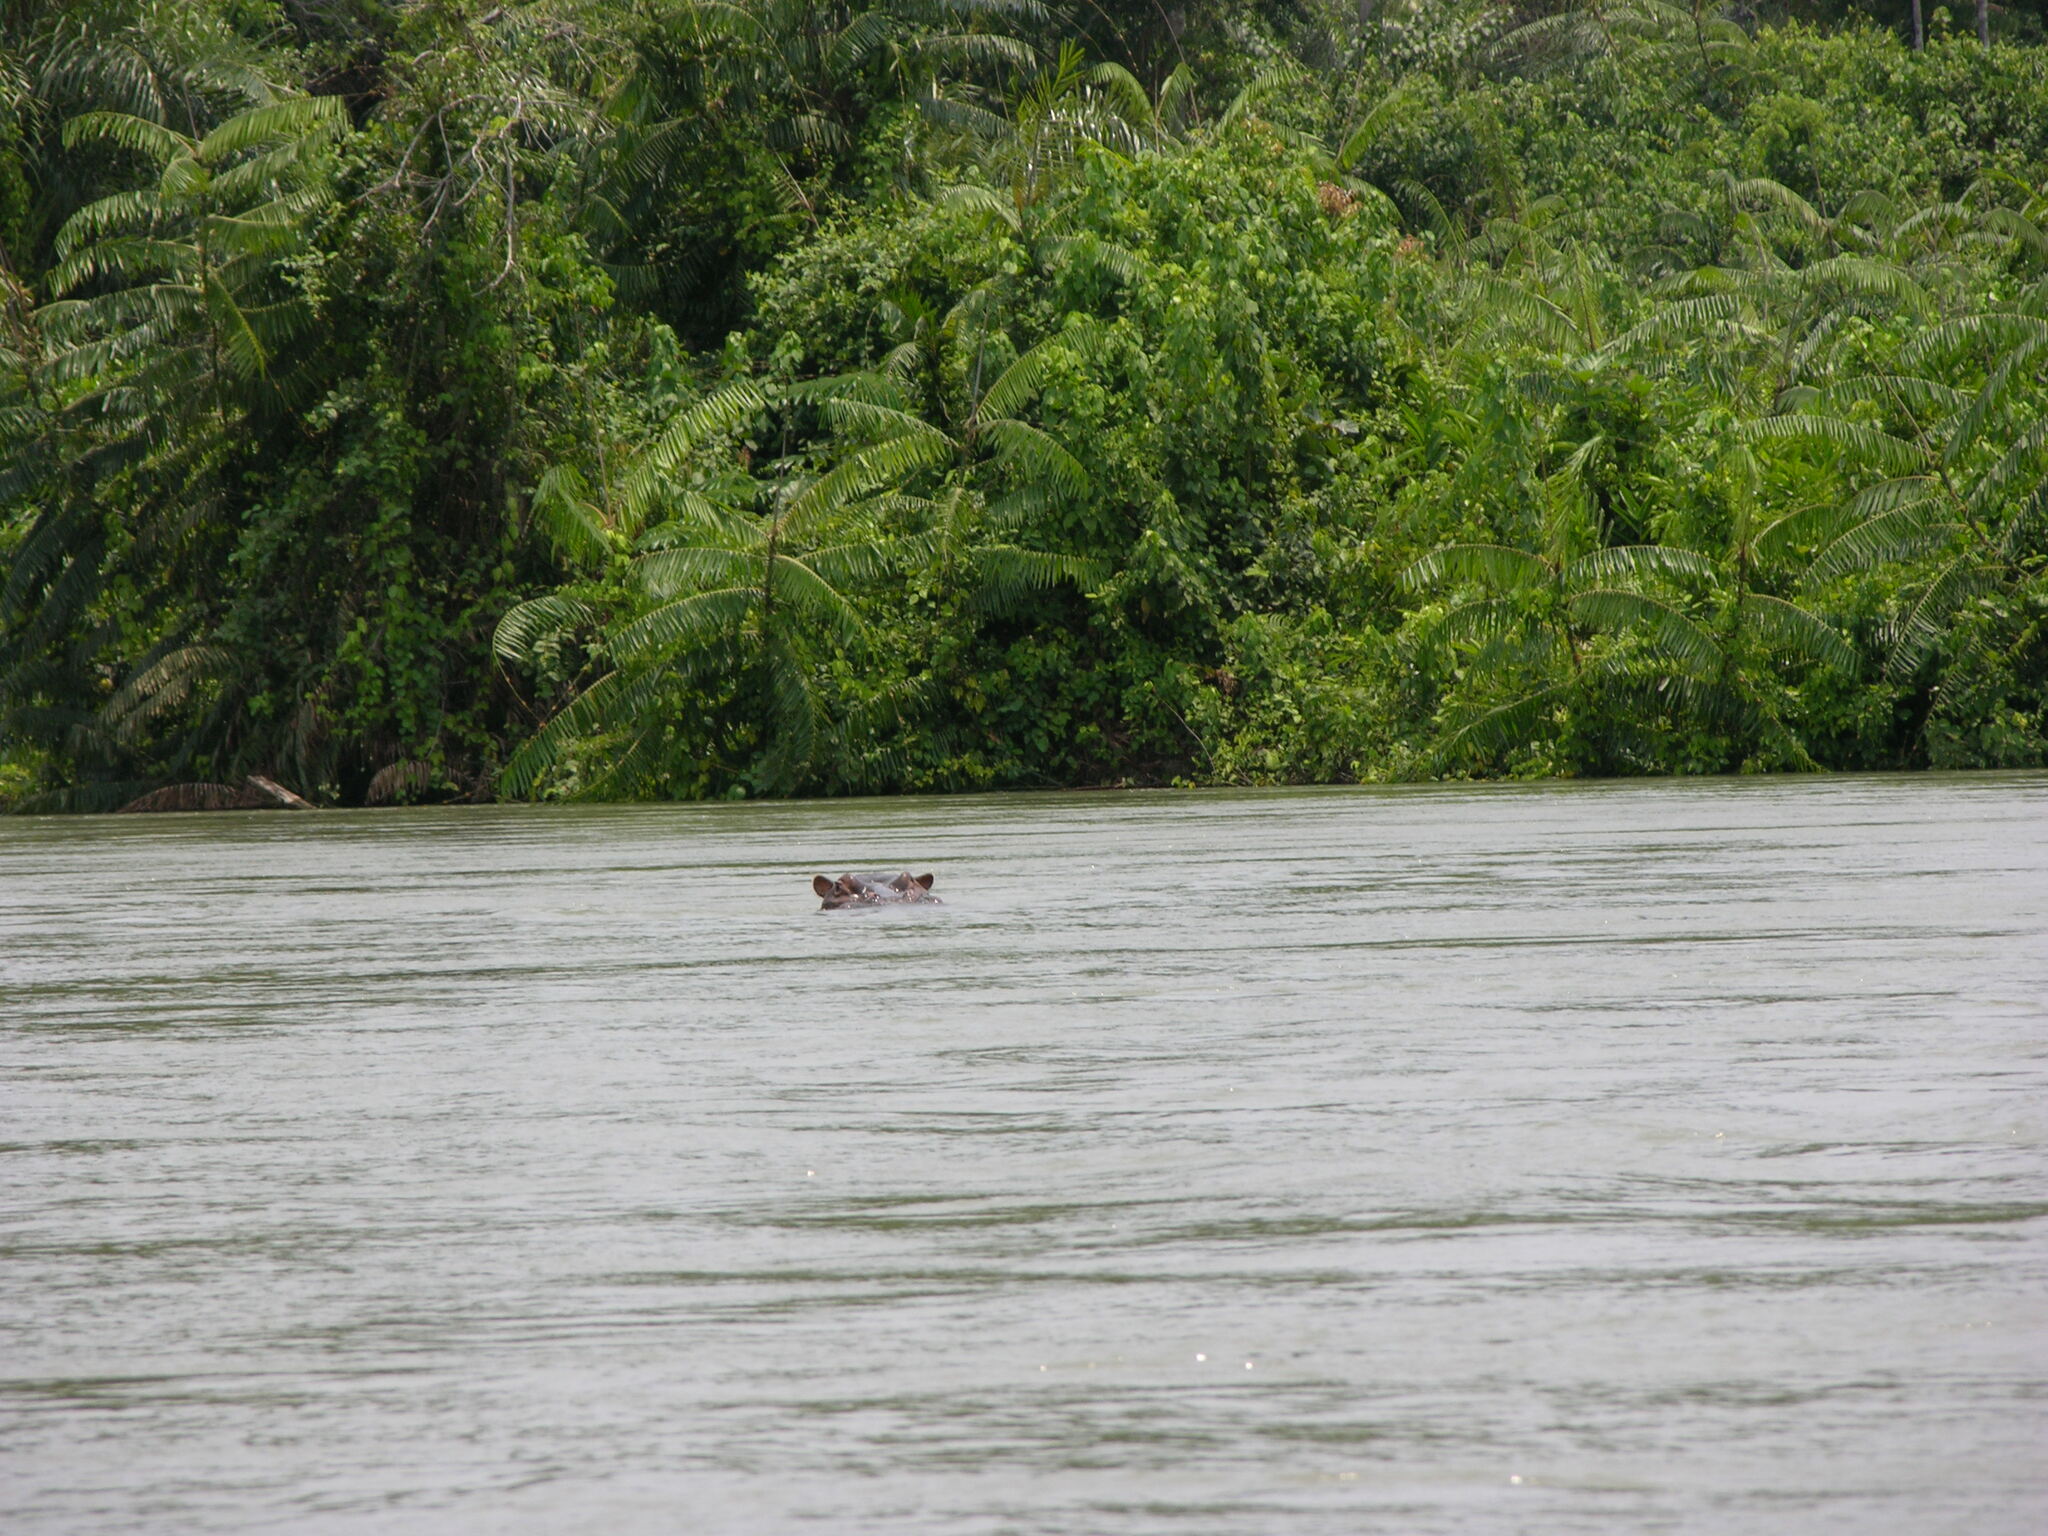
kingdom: Animalia
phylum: Chordata
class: Mammalia
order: Artiodactyla
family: Hippopotamidae
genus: Hippopotamus
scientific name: Hippopotamus amphibius
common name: Common hippopotamus
